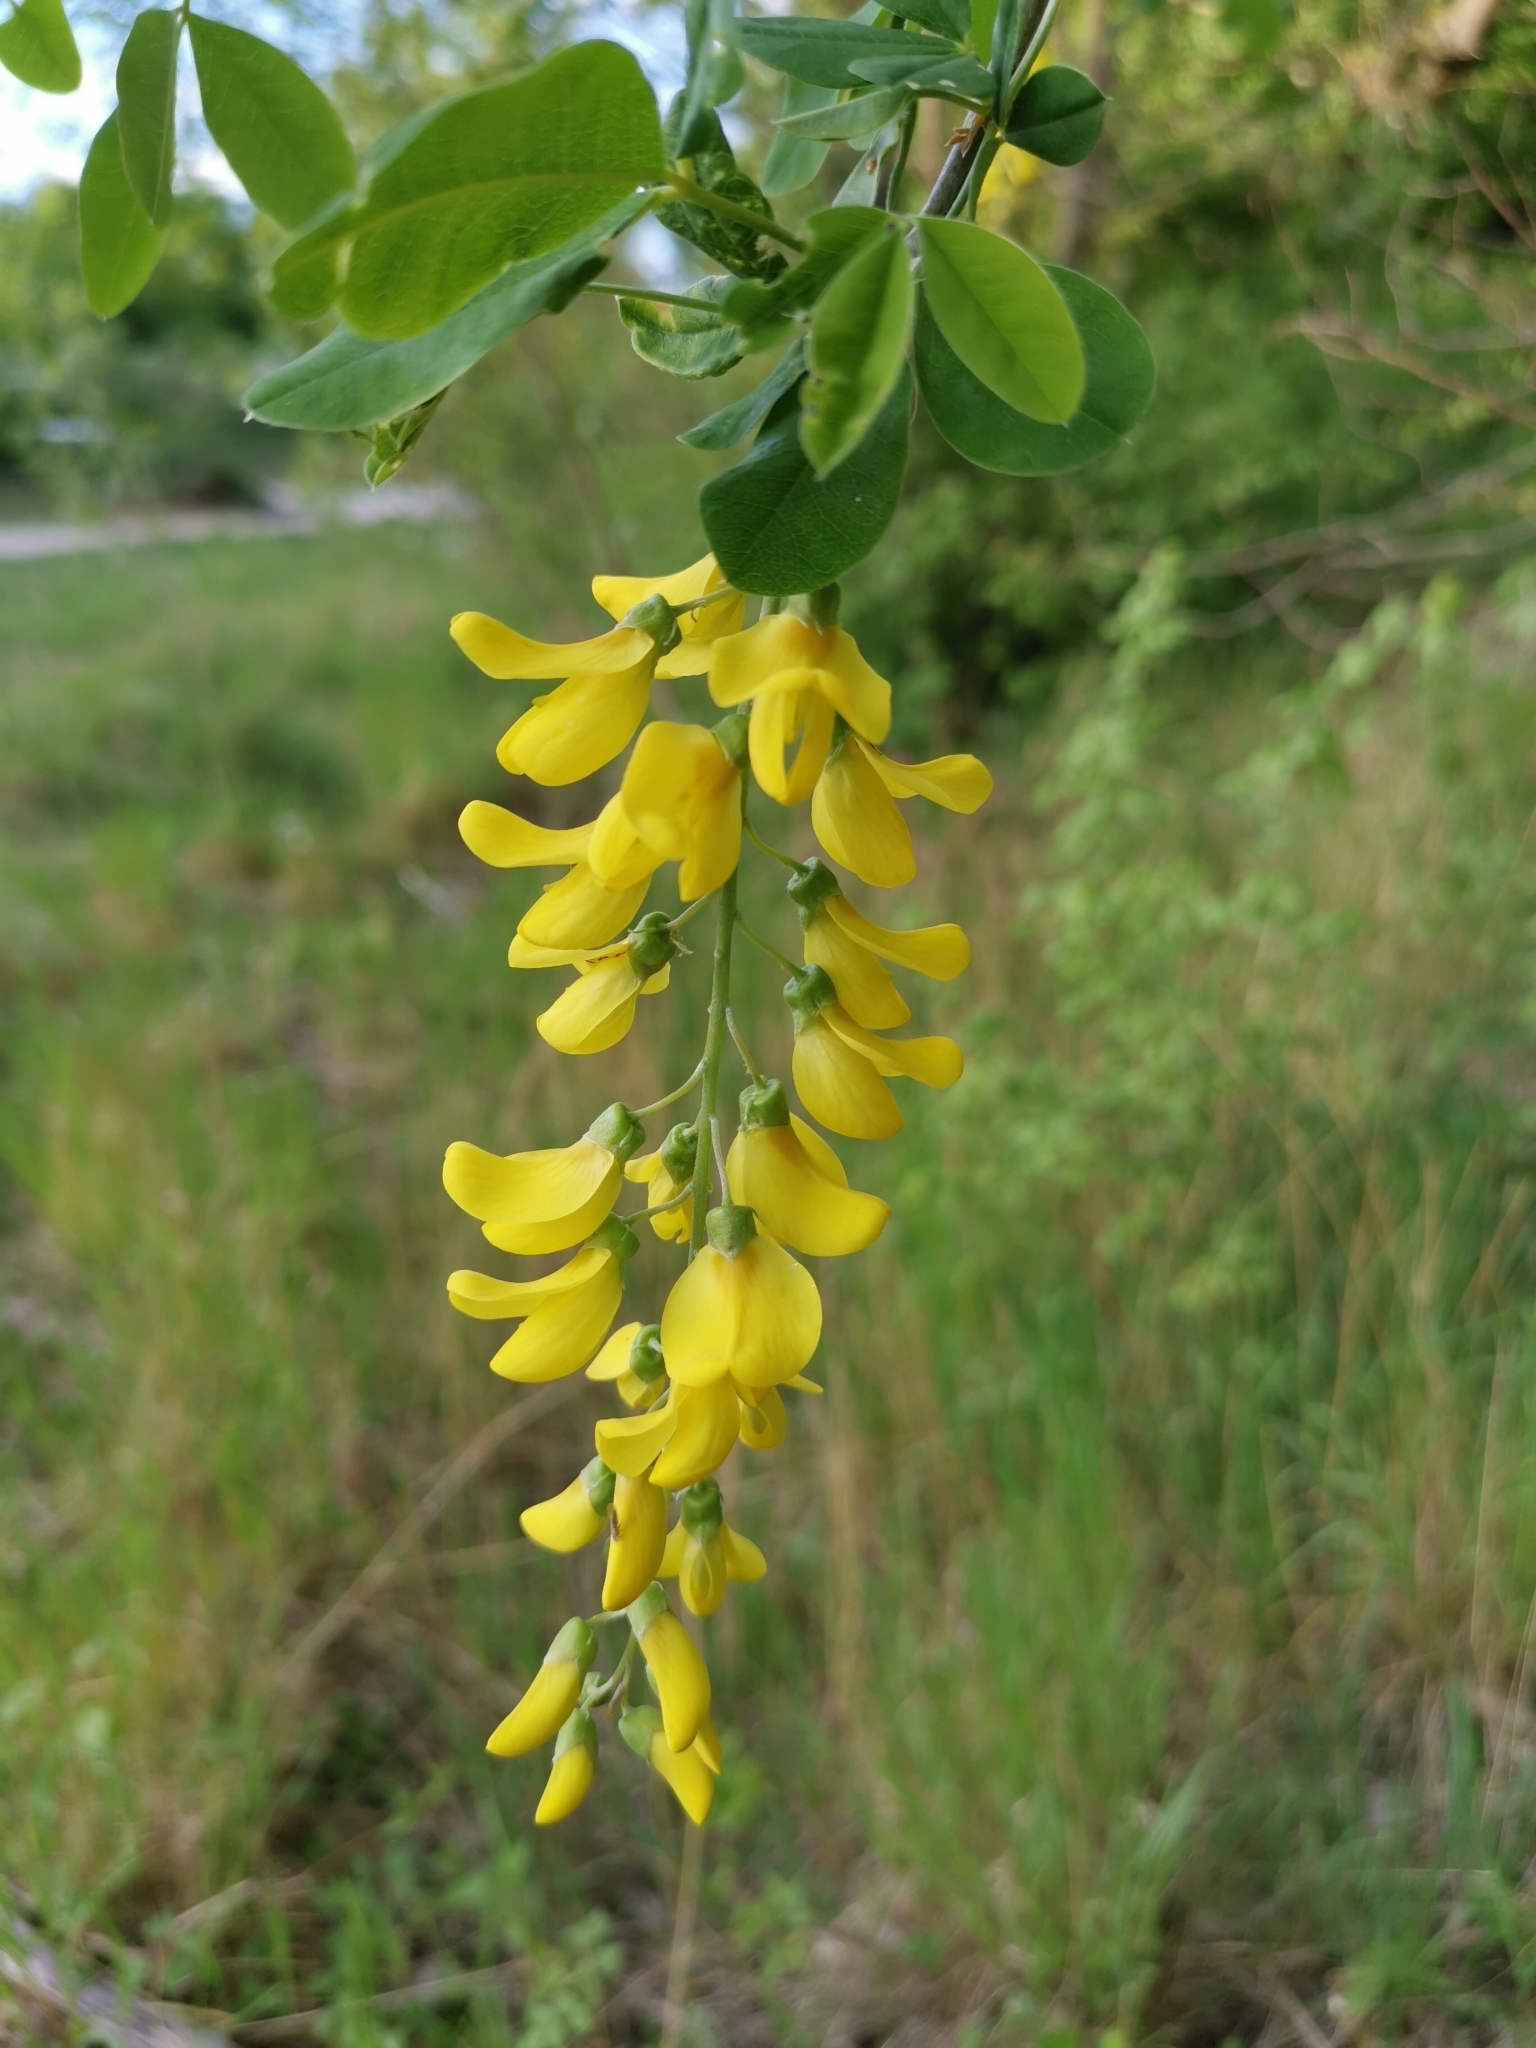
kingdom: Plantae
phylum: Tracheophyta
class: Magnoliopsida
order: Fabales
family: Fabaceae
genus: Laburnum
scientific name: Laburnum anagyroides
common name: Laburnum
